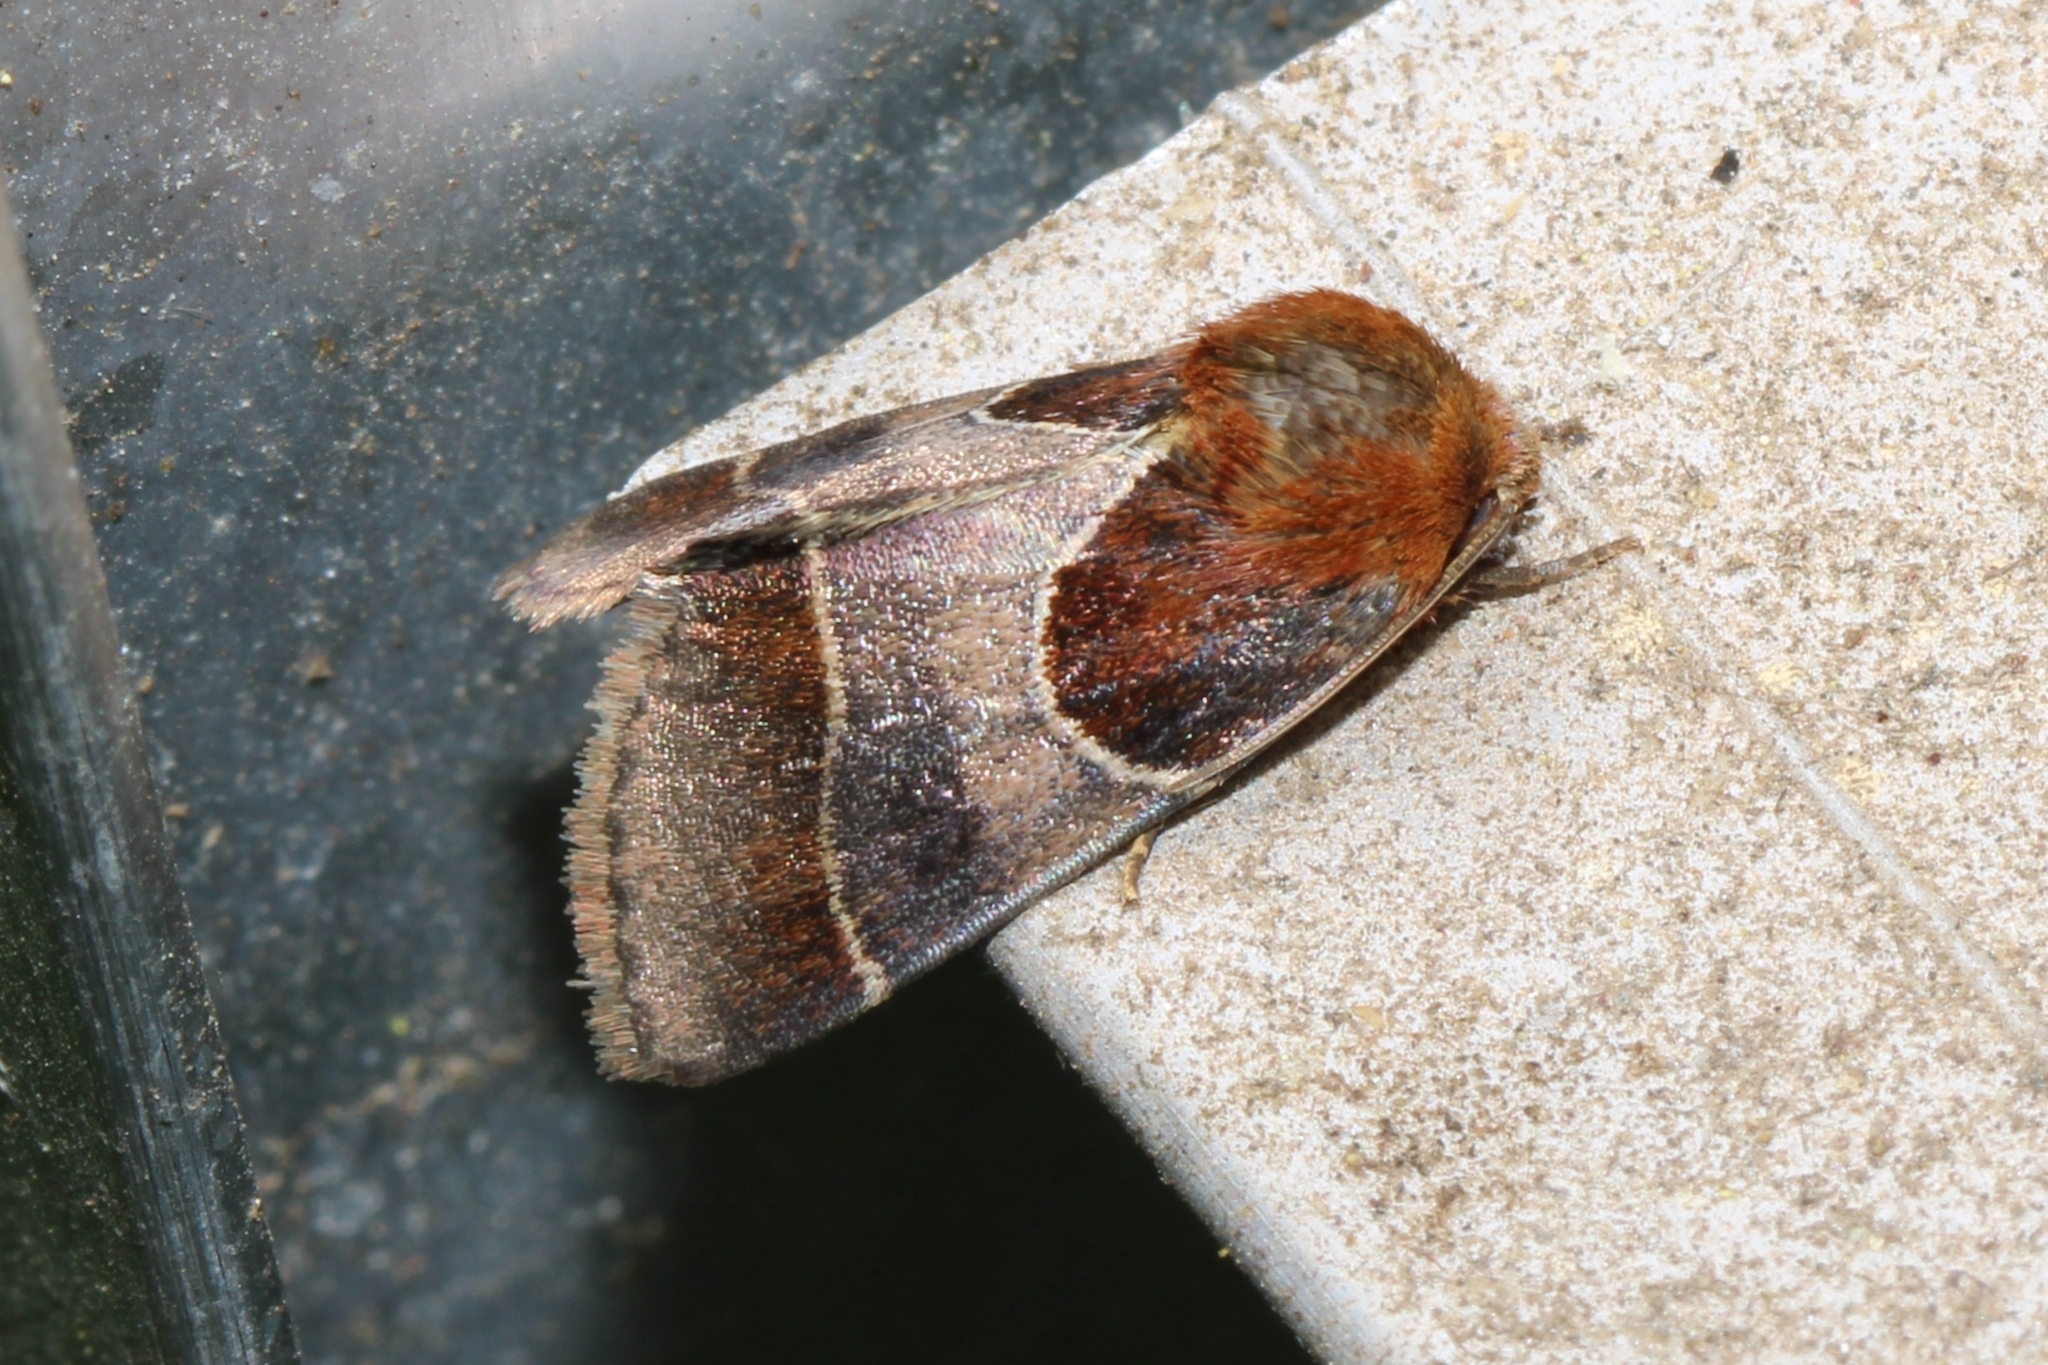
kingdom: Animalia
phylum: Arthropoda
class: Insecta
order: Lepidoptera
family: Noctuidae
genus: Schinia
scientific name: Schinia arcigera
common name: Arcigera flower moth
